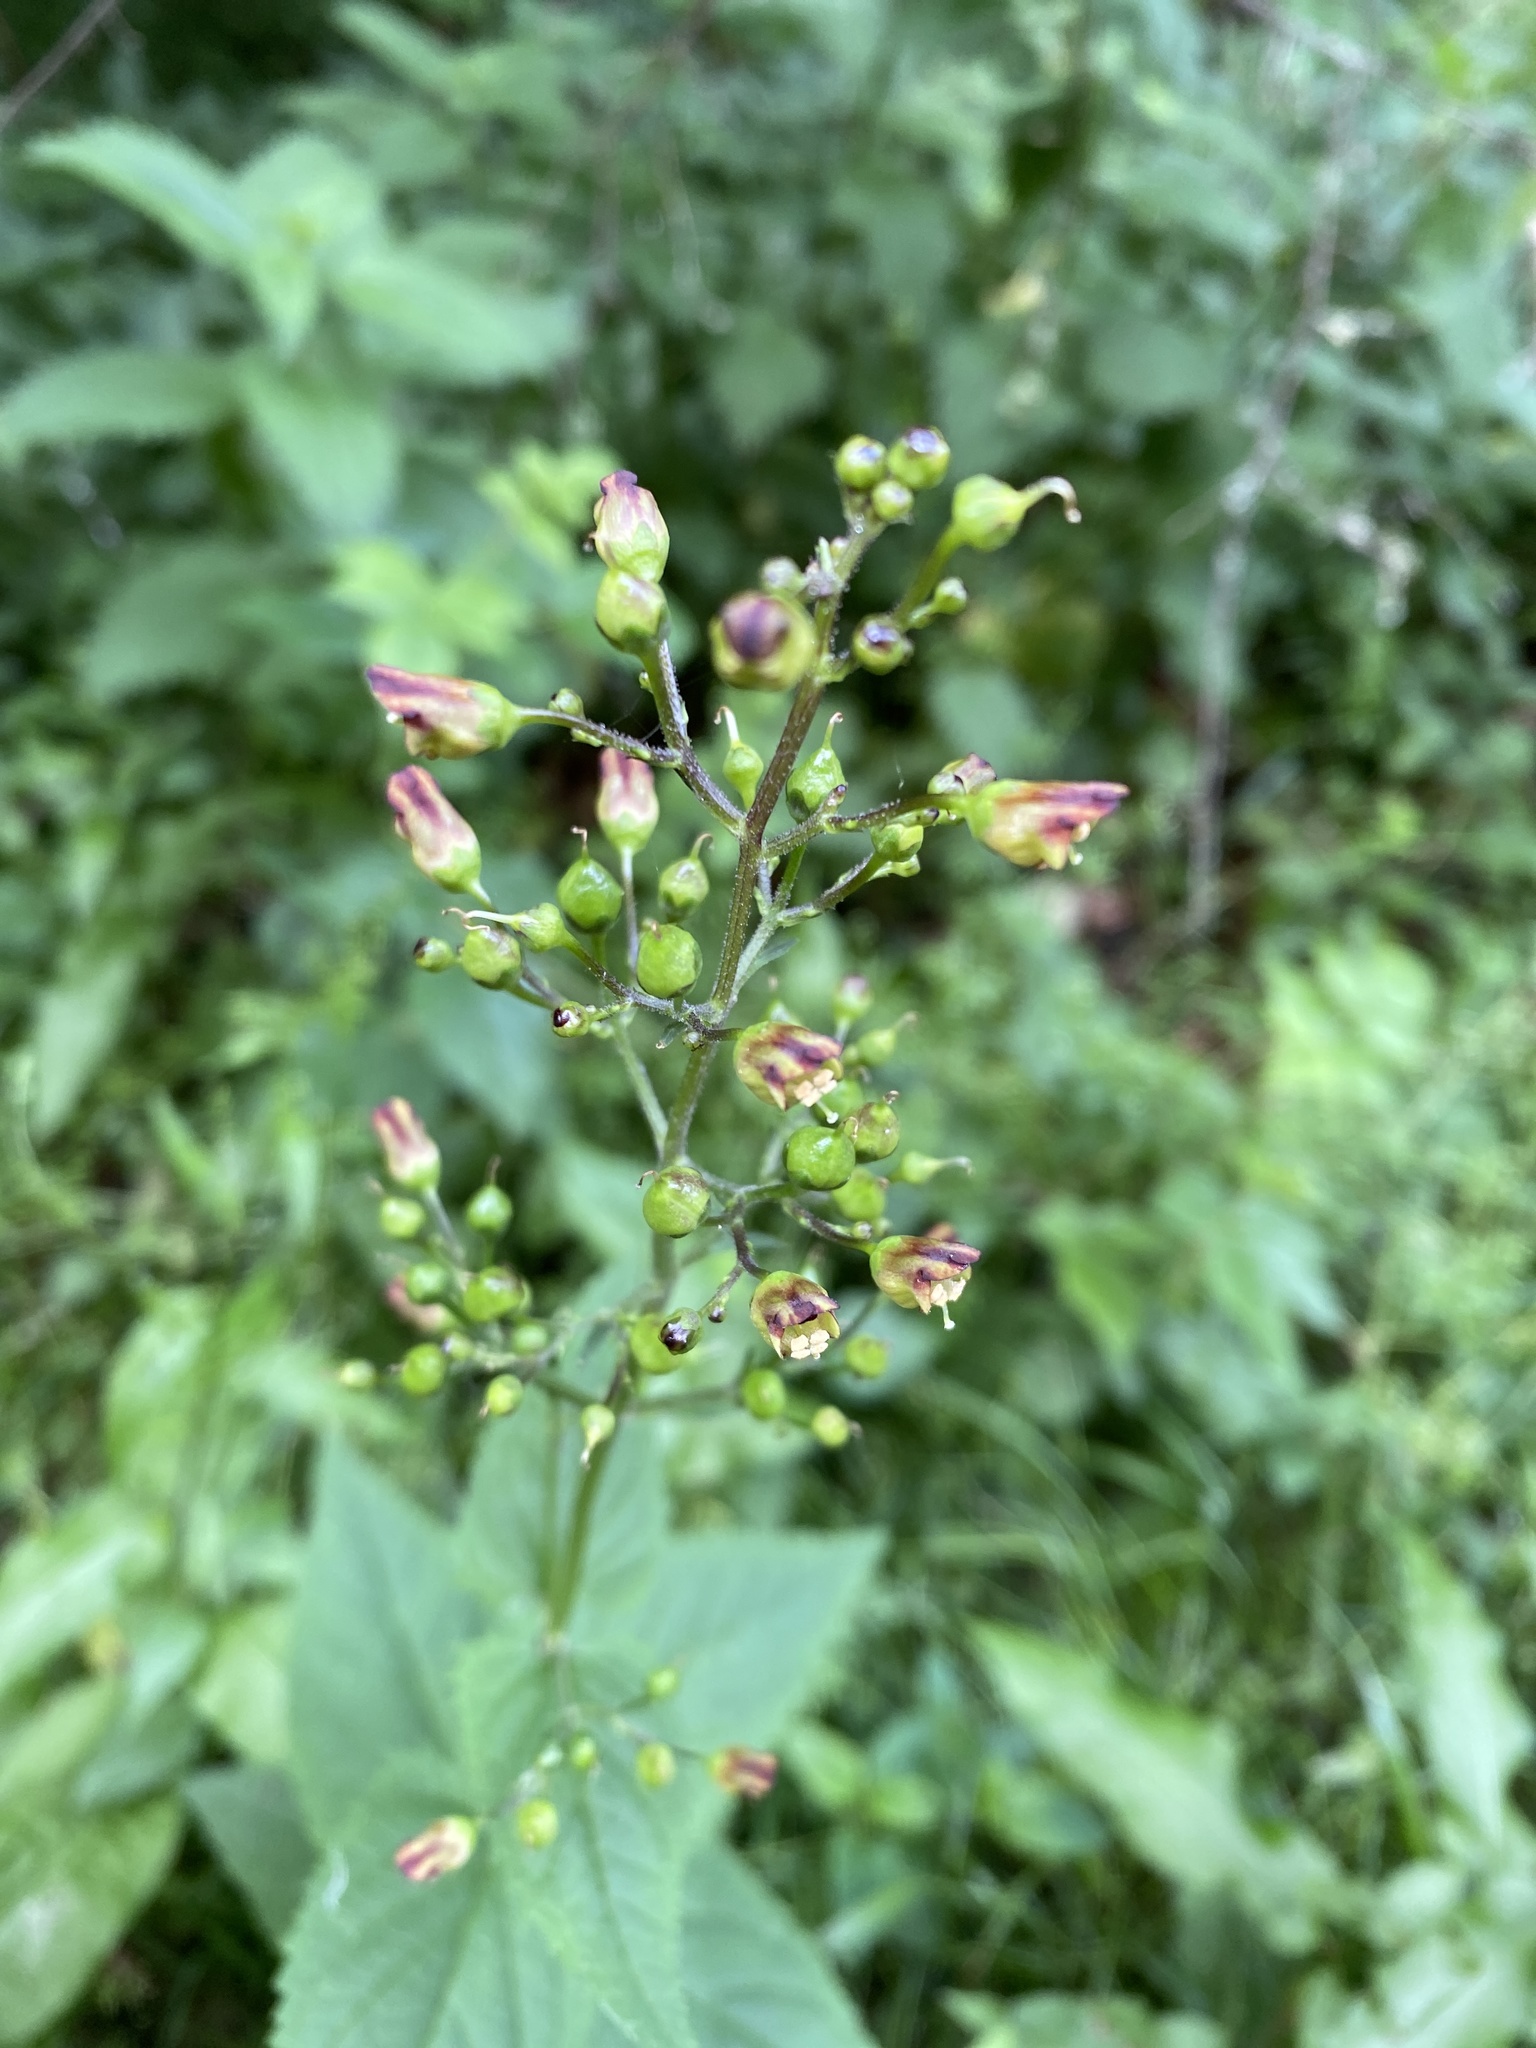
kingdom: Plantae
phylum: Tracheophyta
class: Magnoliopsida
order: Lamiales
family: Scrophulariaceae
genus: Scrophularia
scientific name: Scrophularia nodosa
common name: Common figwort
